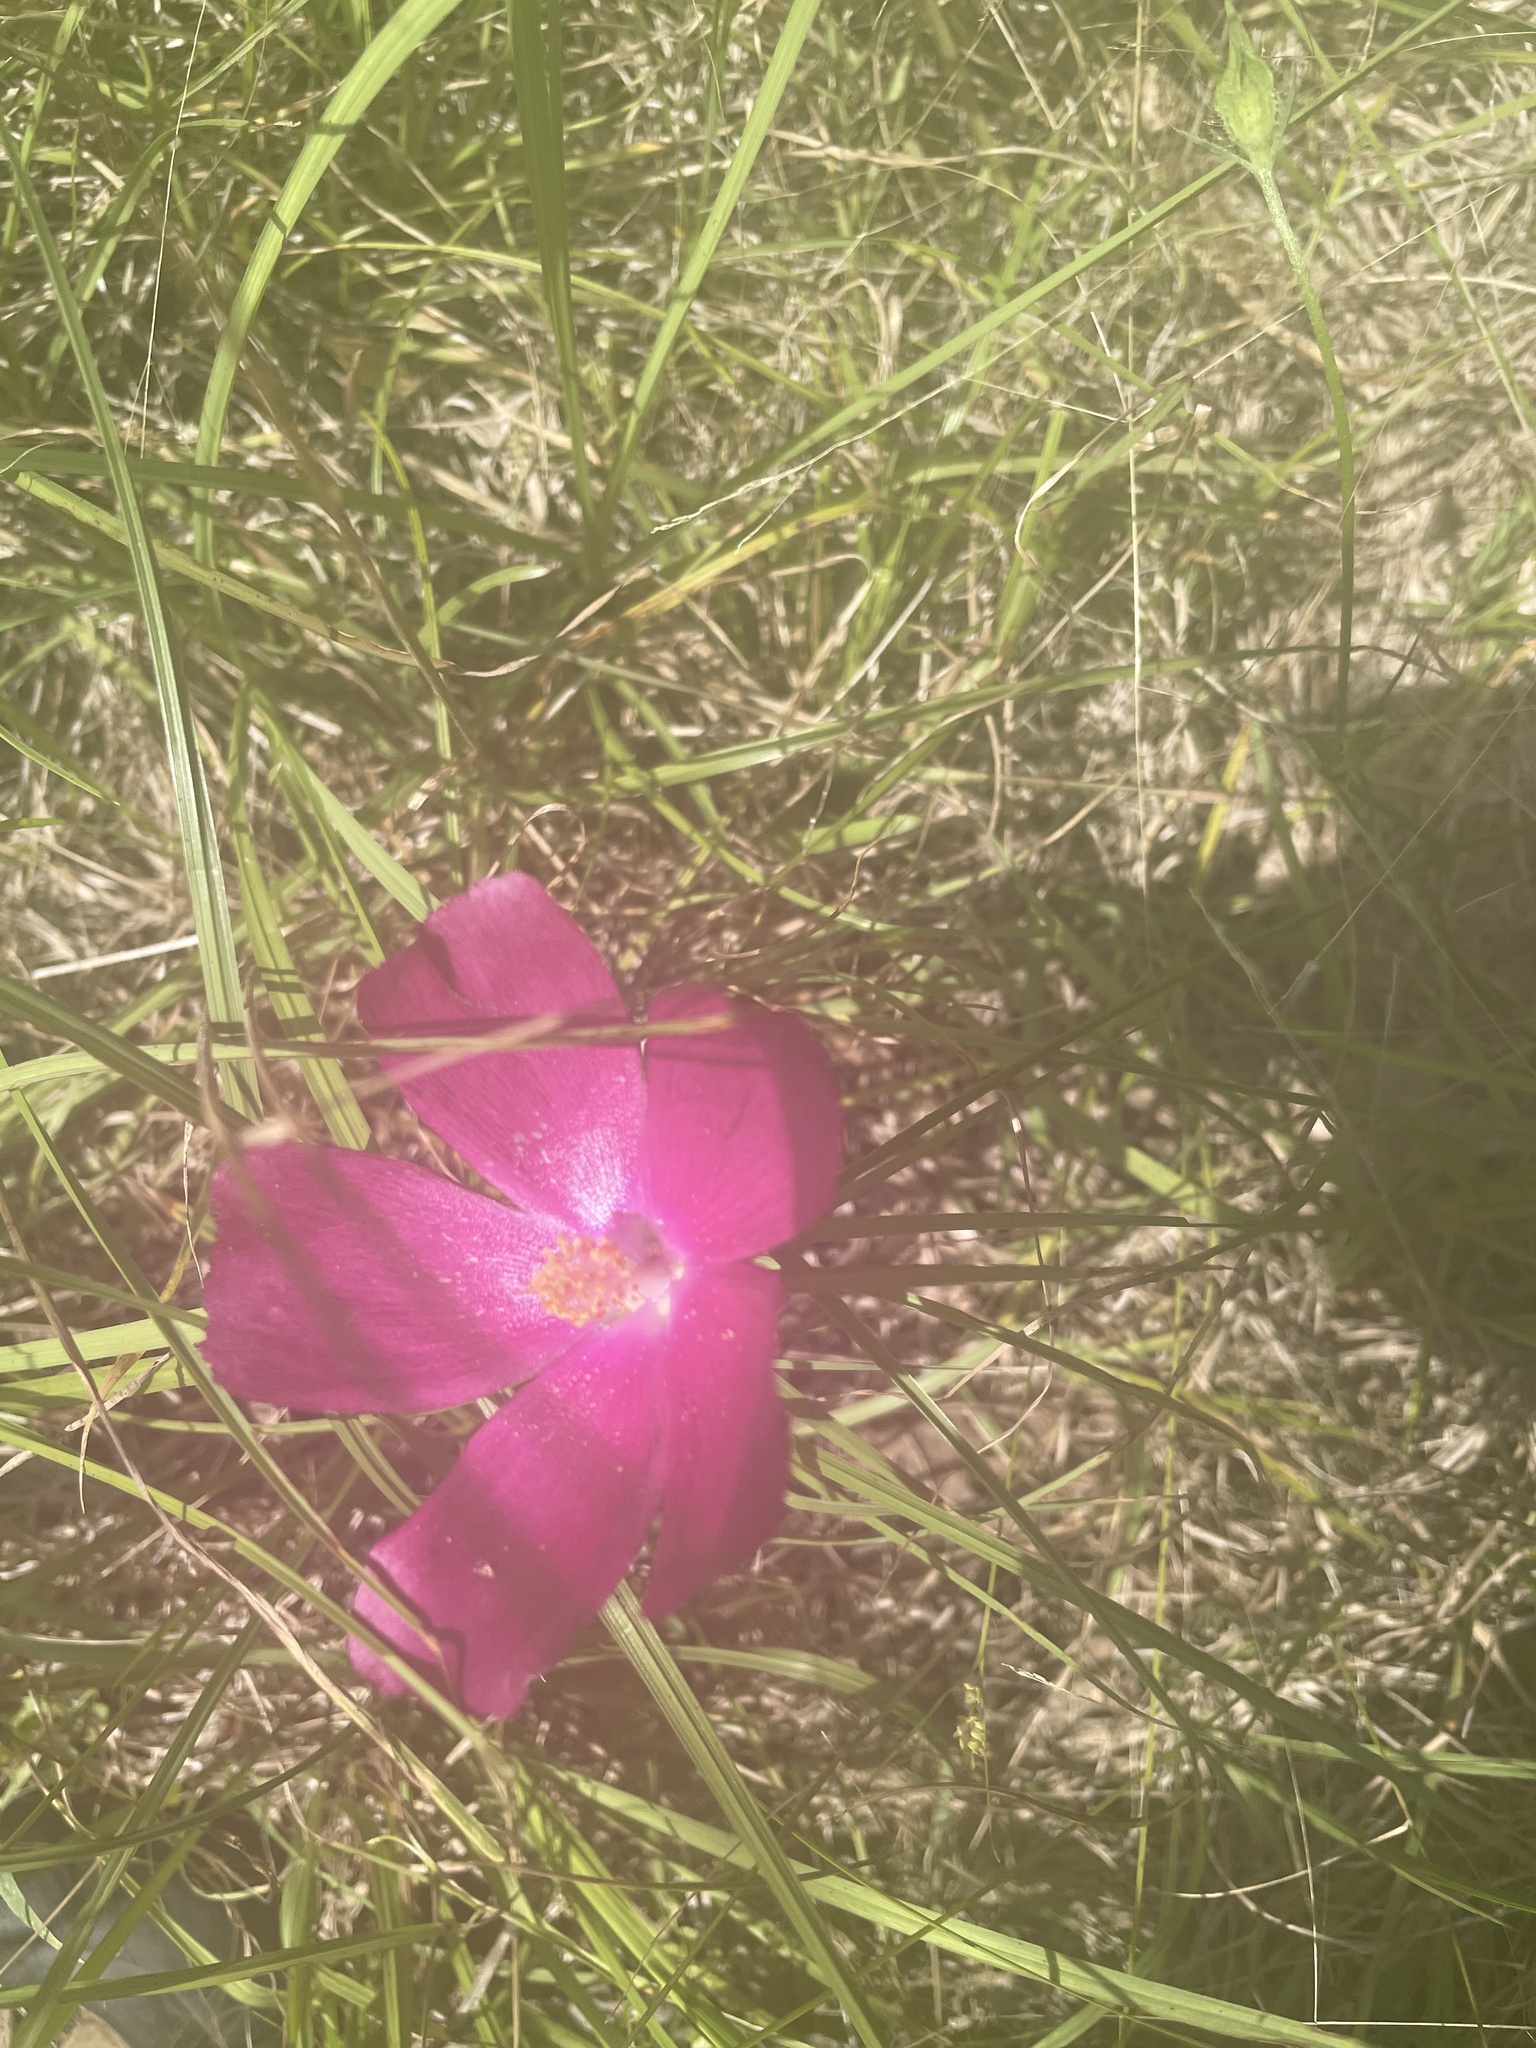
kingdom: Plantae
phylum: Tracheophyta
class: Magnoliopsida
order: Malvales
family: Malvaceae
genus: Callirhoe
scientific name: Callirhoe papaver
